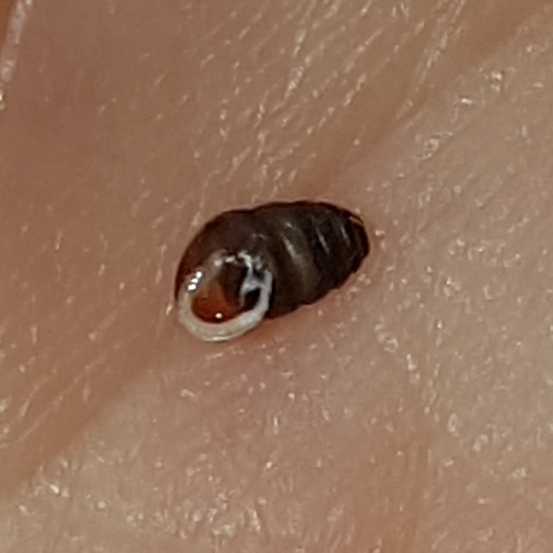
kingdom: Animalia
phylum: Mollusca
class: Gastropoda
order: Stylommatophora
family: Lauriidae
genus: Lauria
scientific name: Lauria cylindracea
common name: Common chrysalis snail
